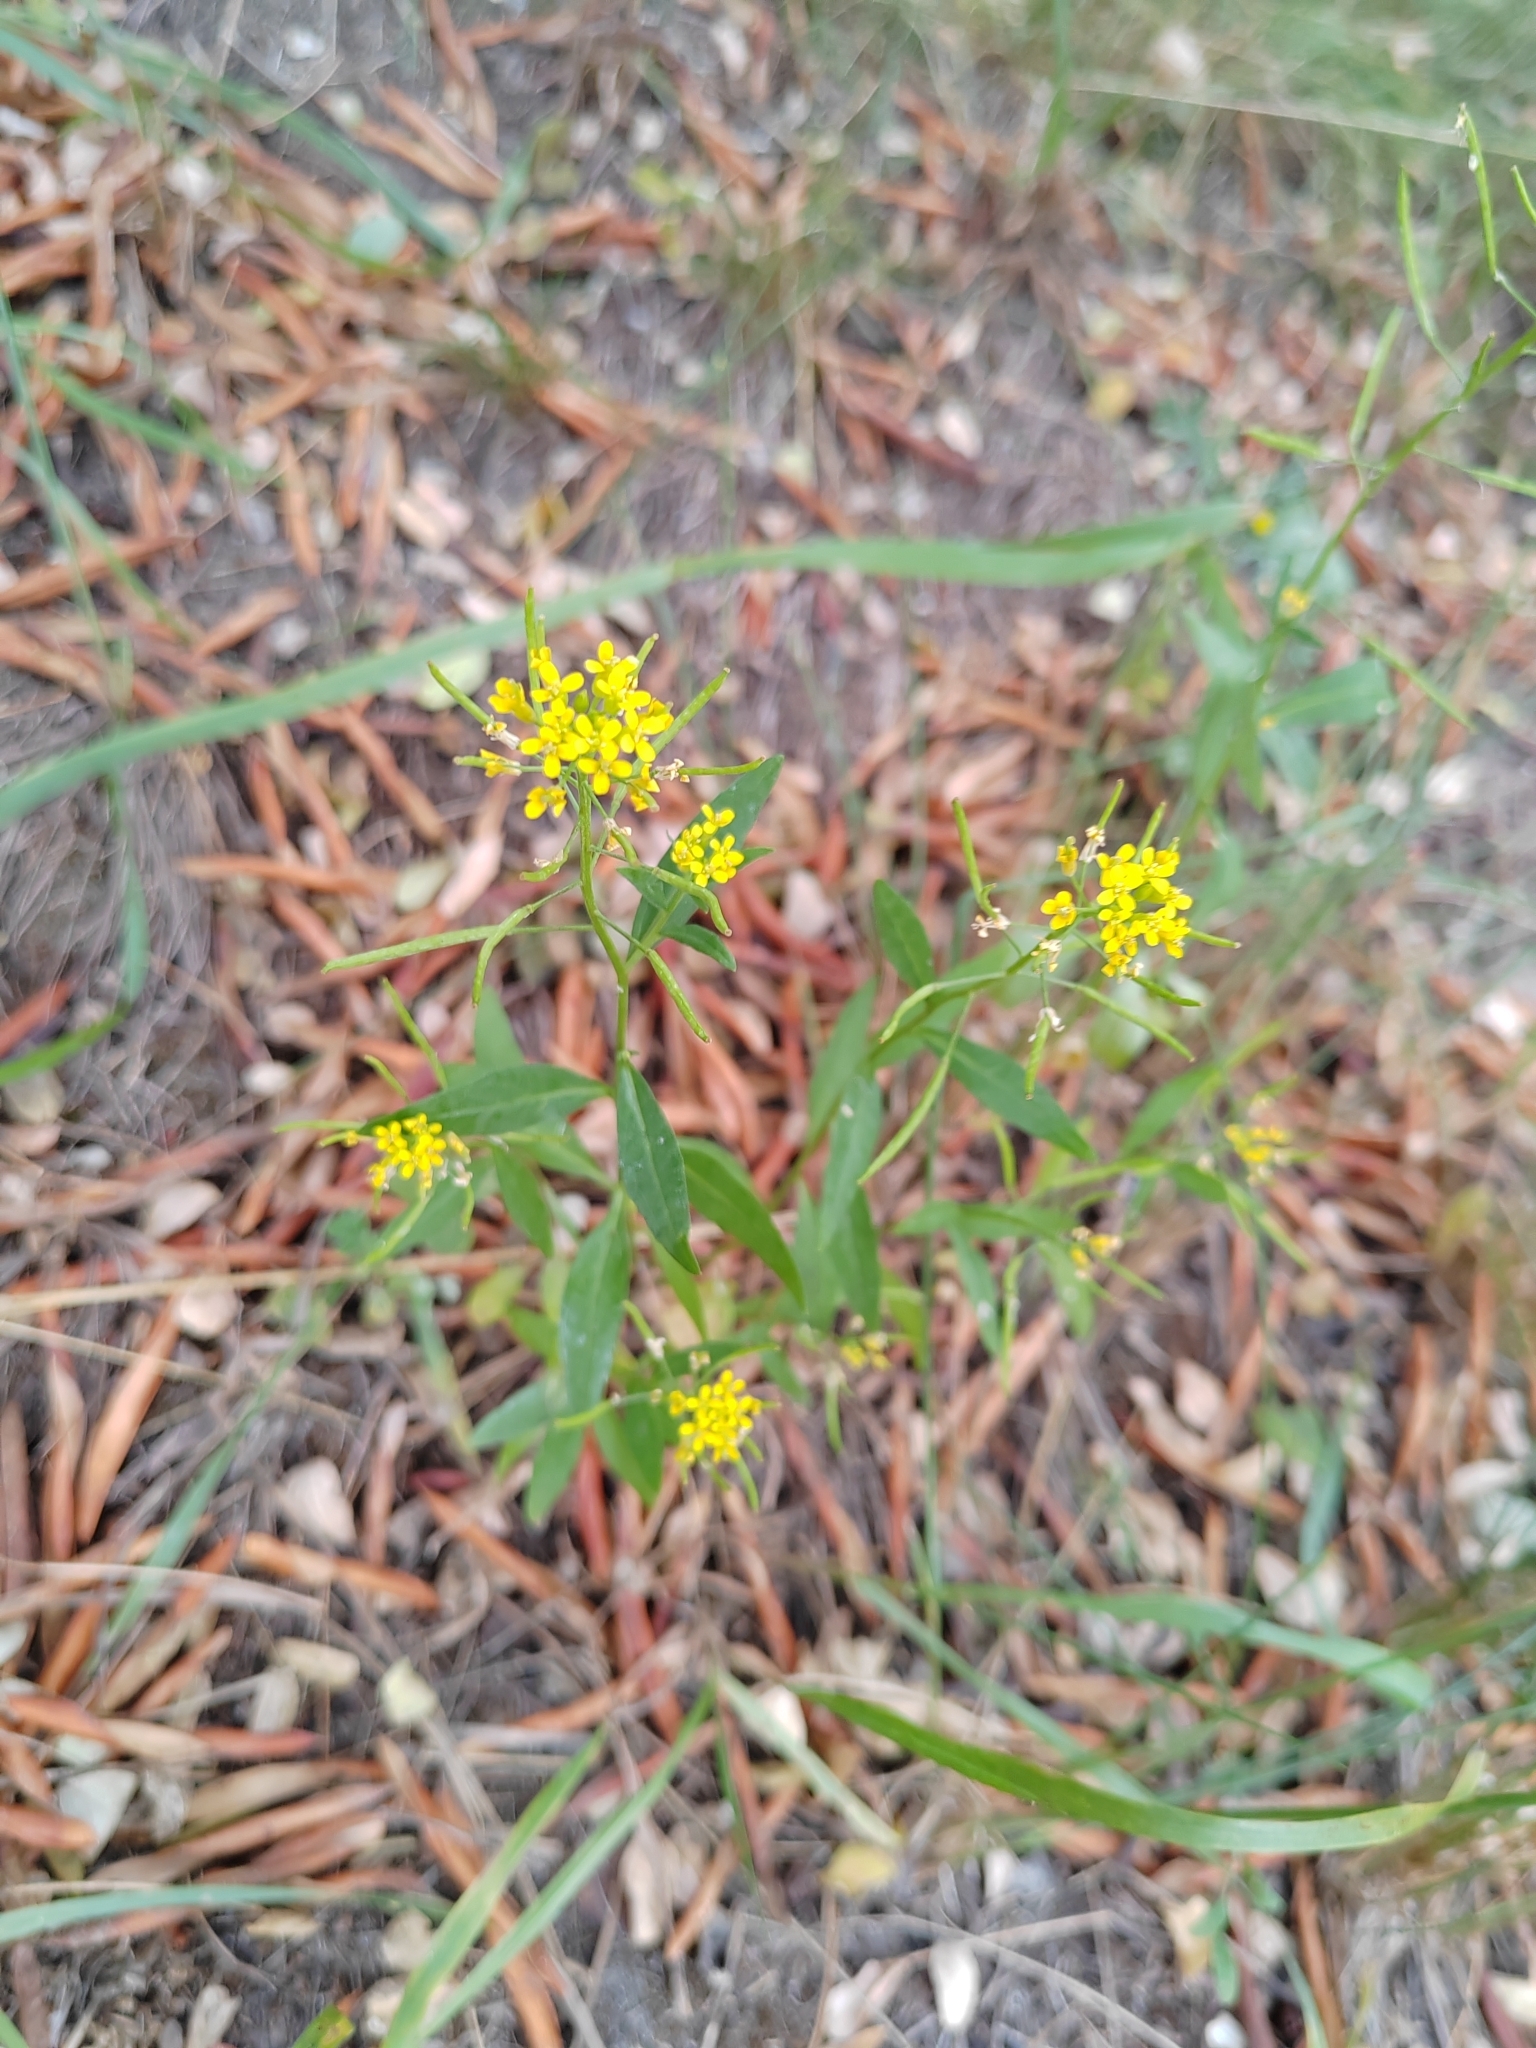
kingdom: Plantae
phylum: Tracheophyta
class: Magnoliopsida
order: Brassicales
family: Brassicaceae
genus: Erysimum
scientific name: Erysimum cheiranthoides
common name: Treacle mustard
